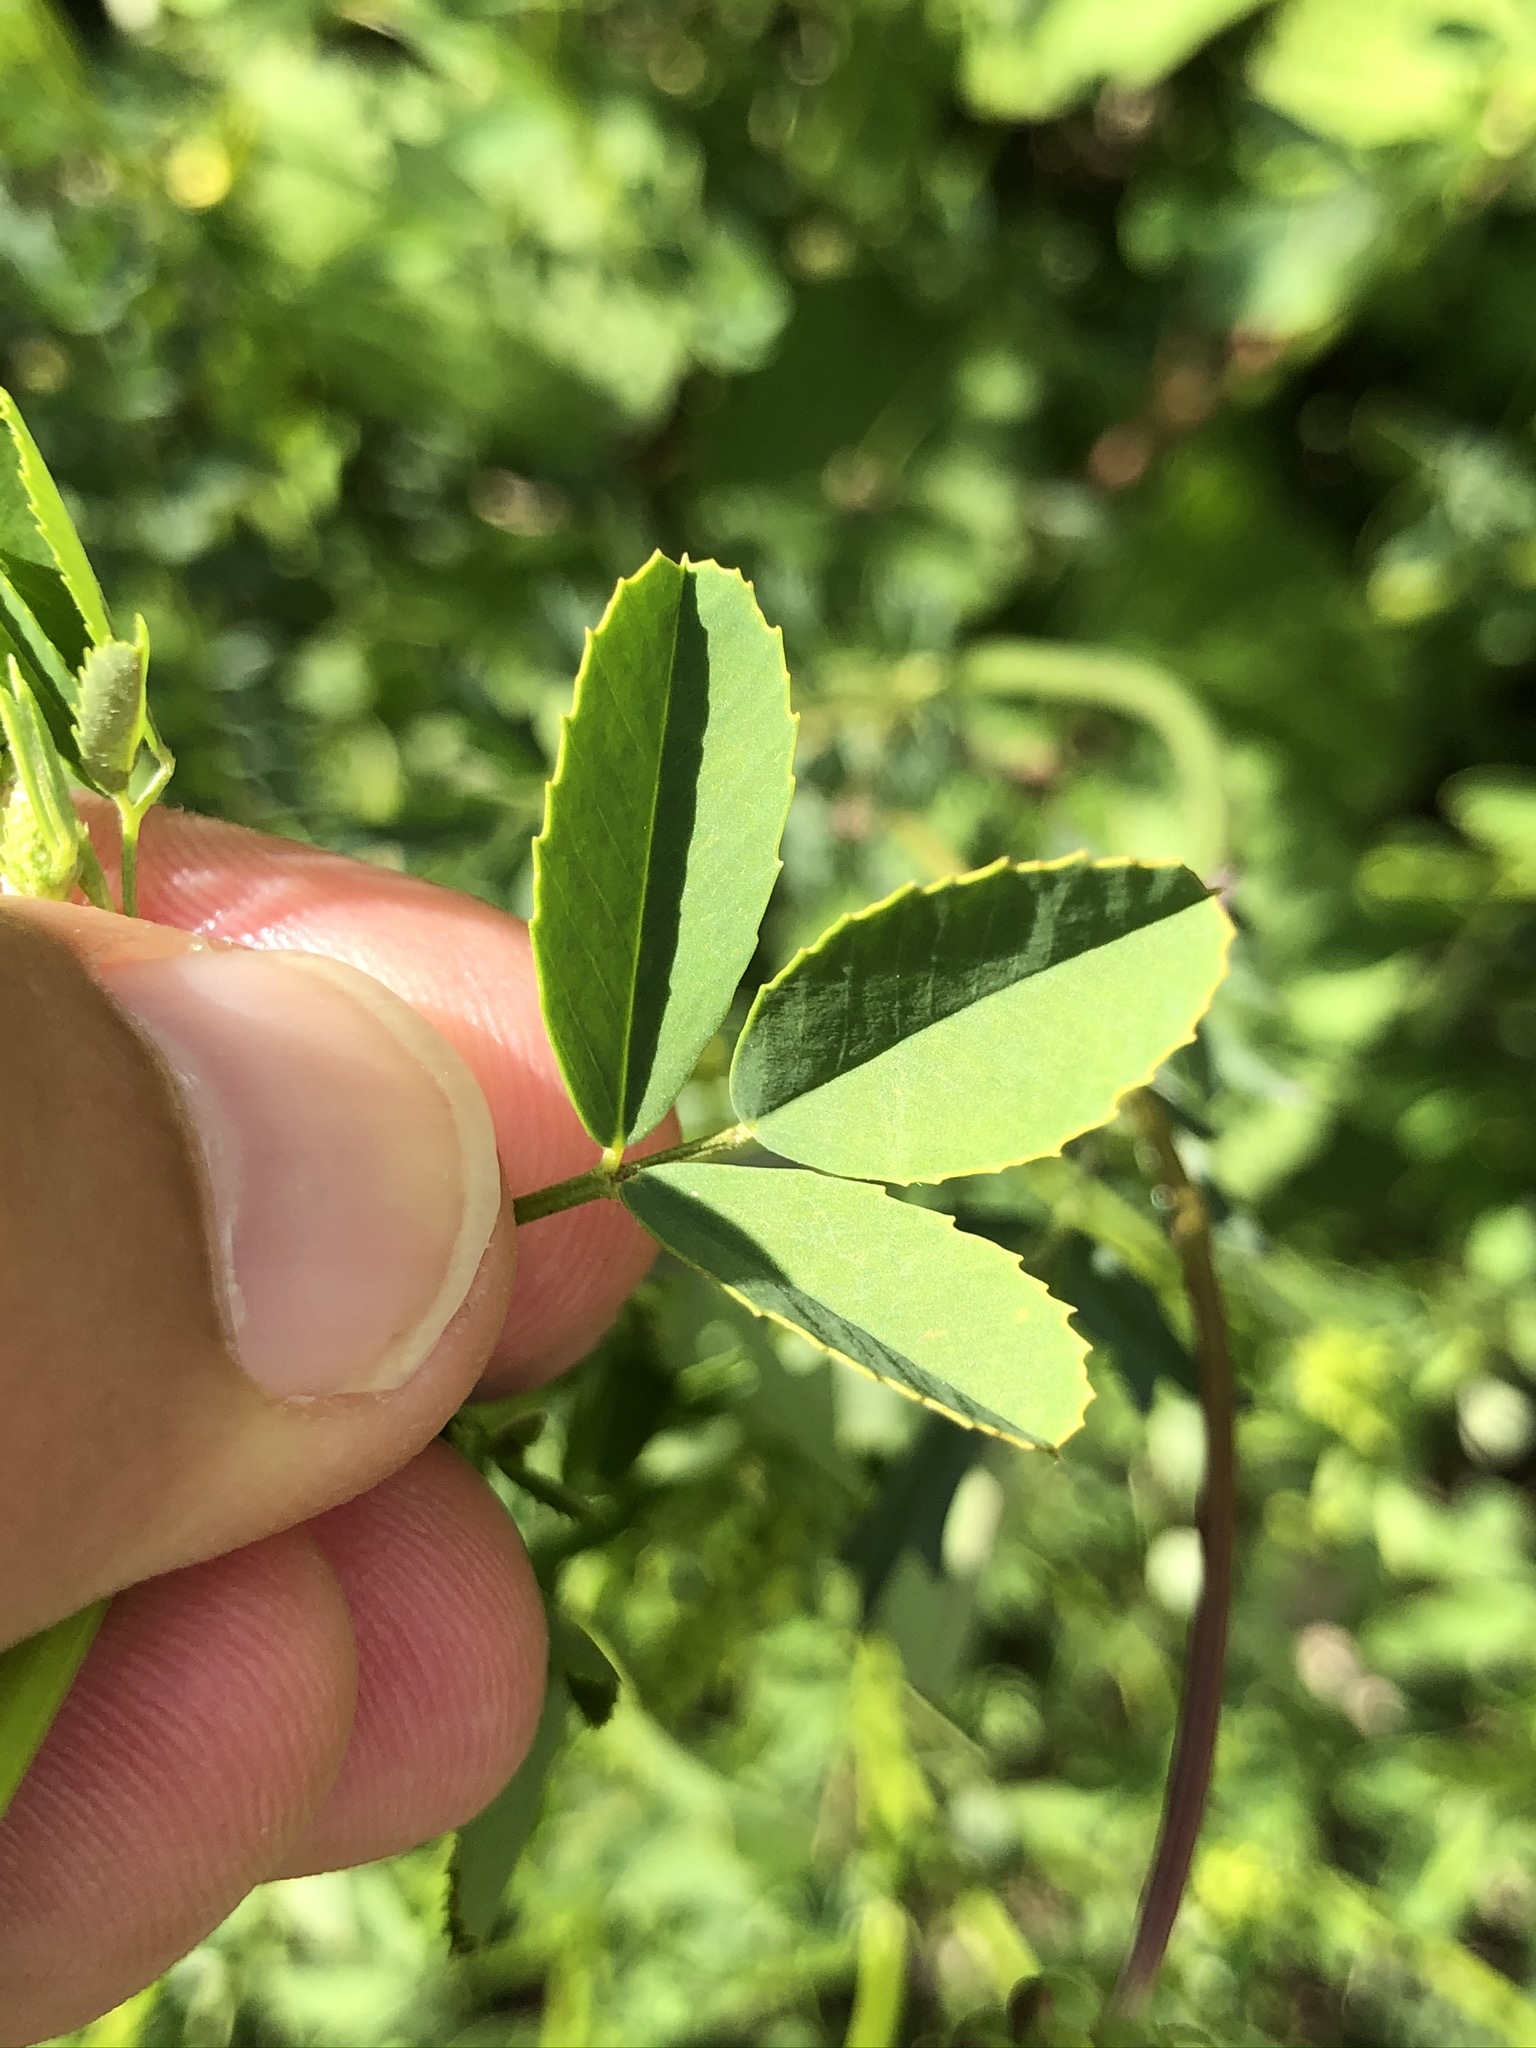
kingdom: Plantae
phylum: Tracheophyta
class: Magnoliopsida
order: Fabales
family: Fabaceae
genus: Melilotus
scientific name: Melilotus officinalis
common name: Sweetclover
